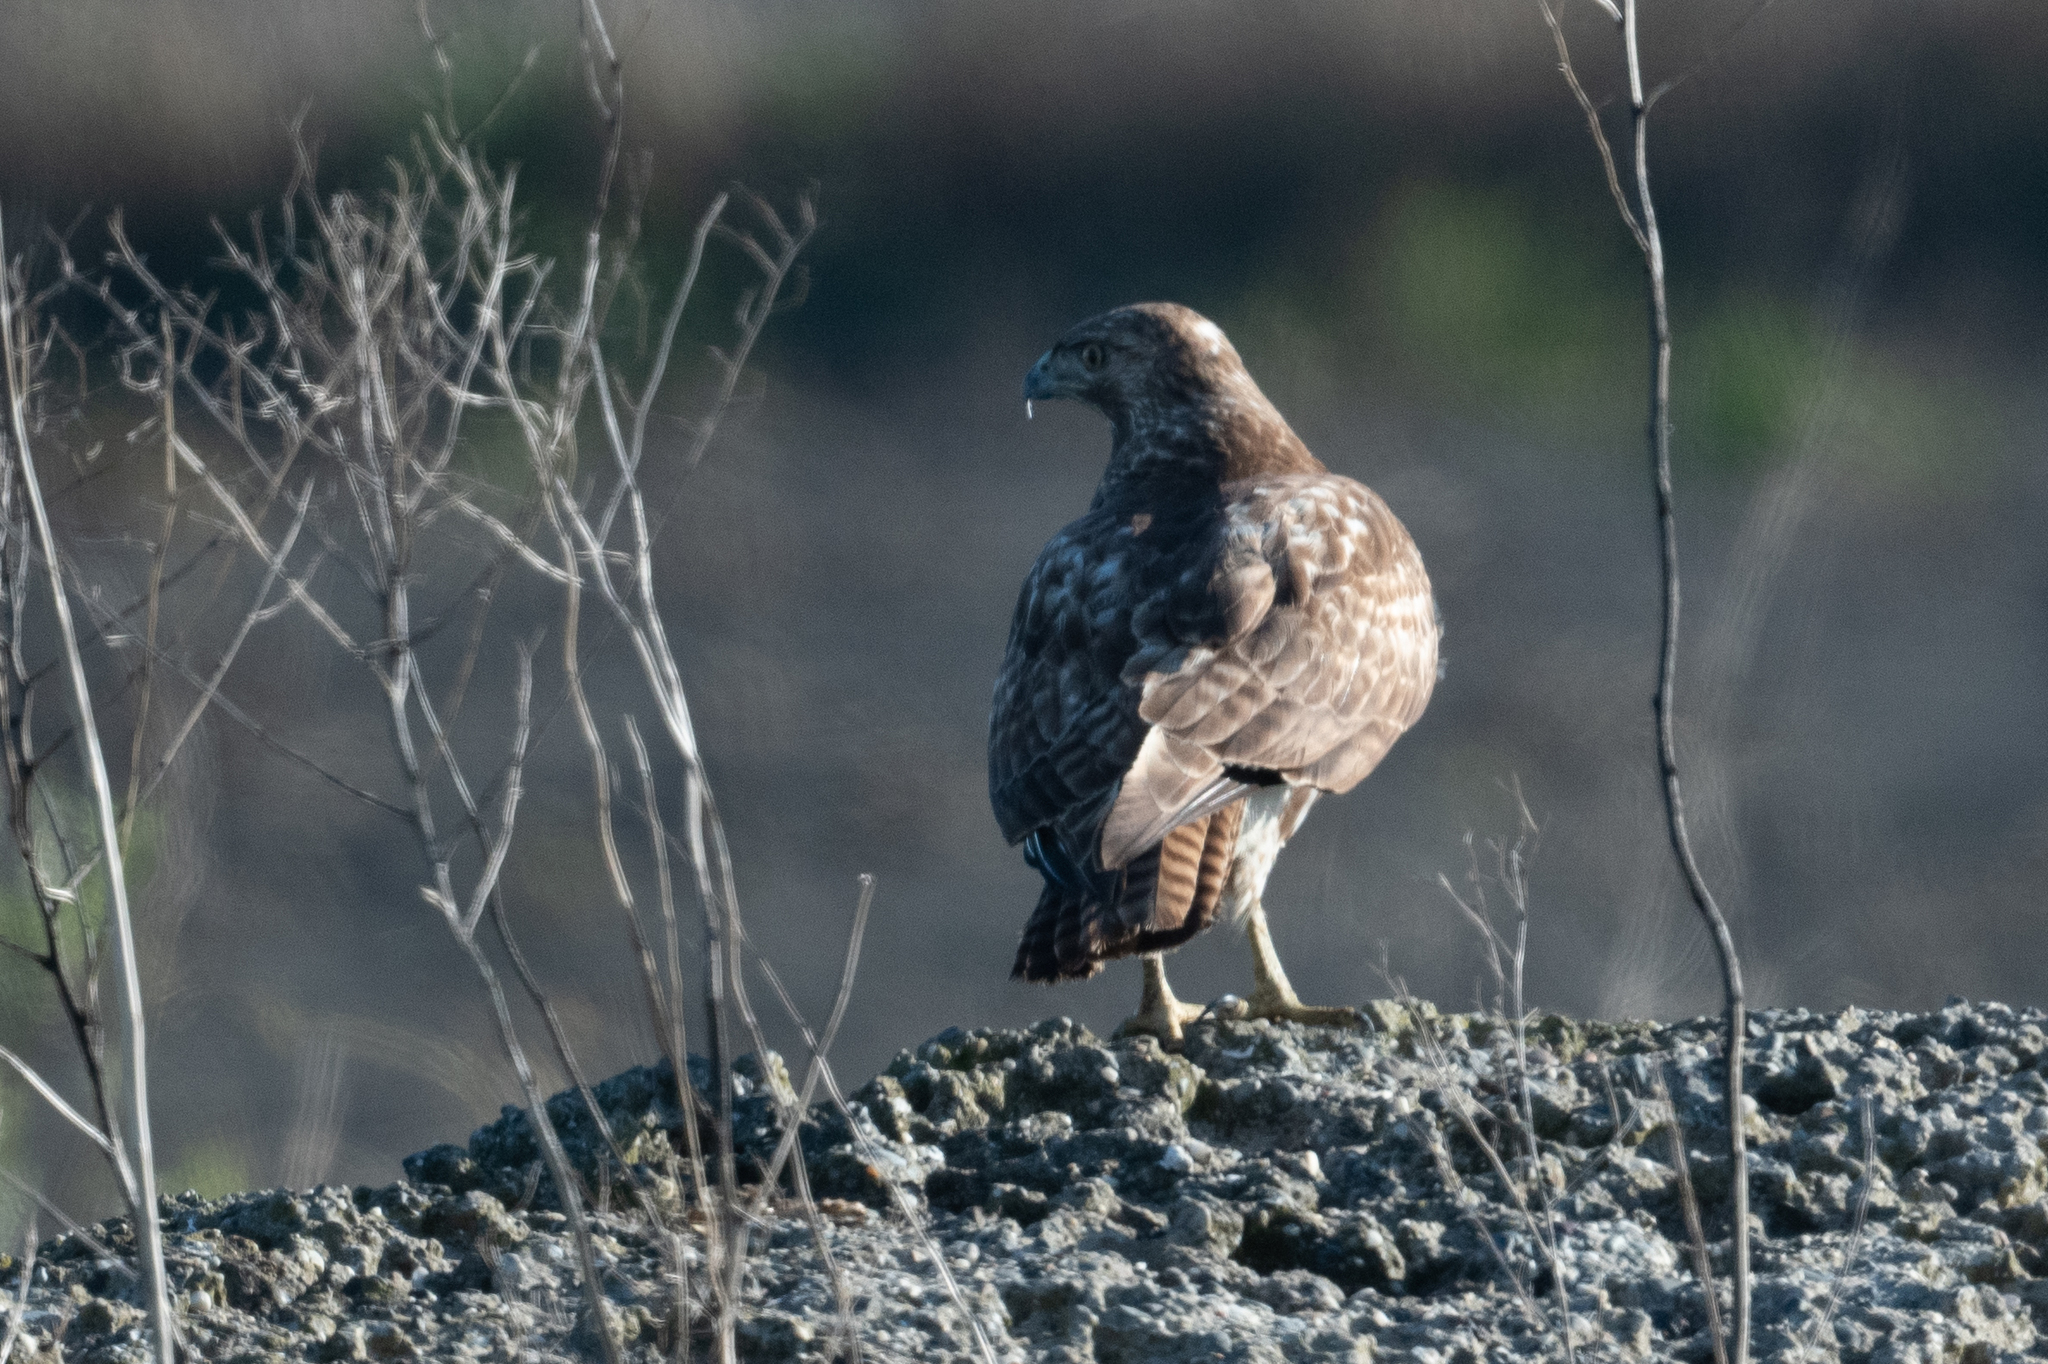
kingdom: Animalia
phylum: Chordata
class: Aves
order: Accipitriformes
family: Accipitridae
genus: Buteo
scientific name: Buteo jamaicensis
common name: Red-tailed hawk
